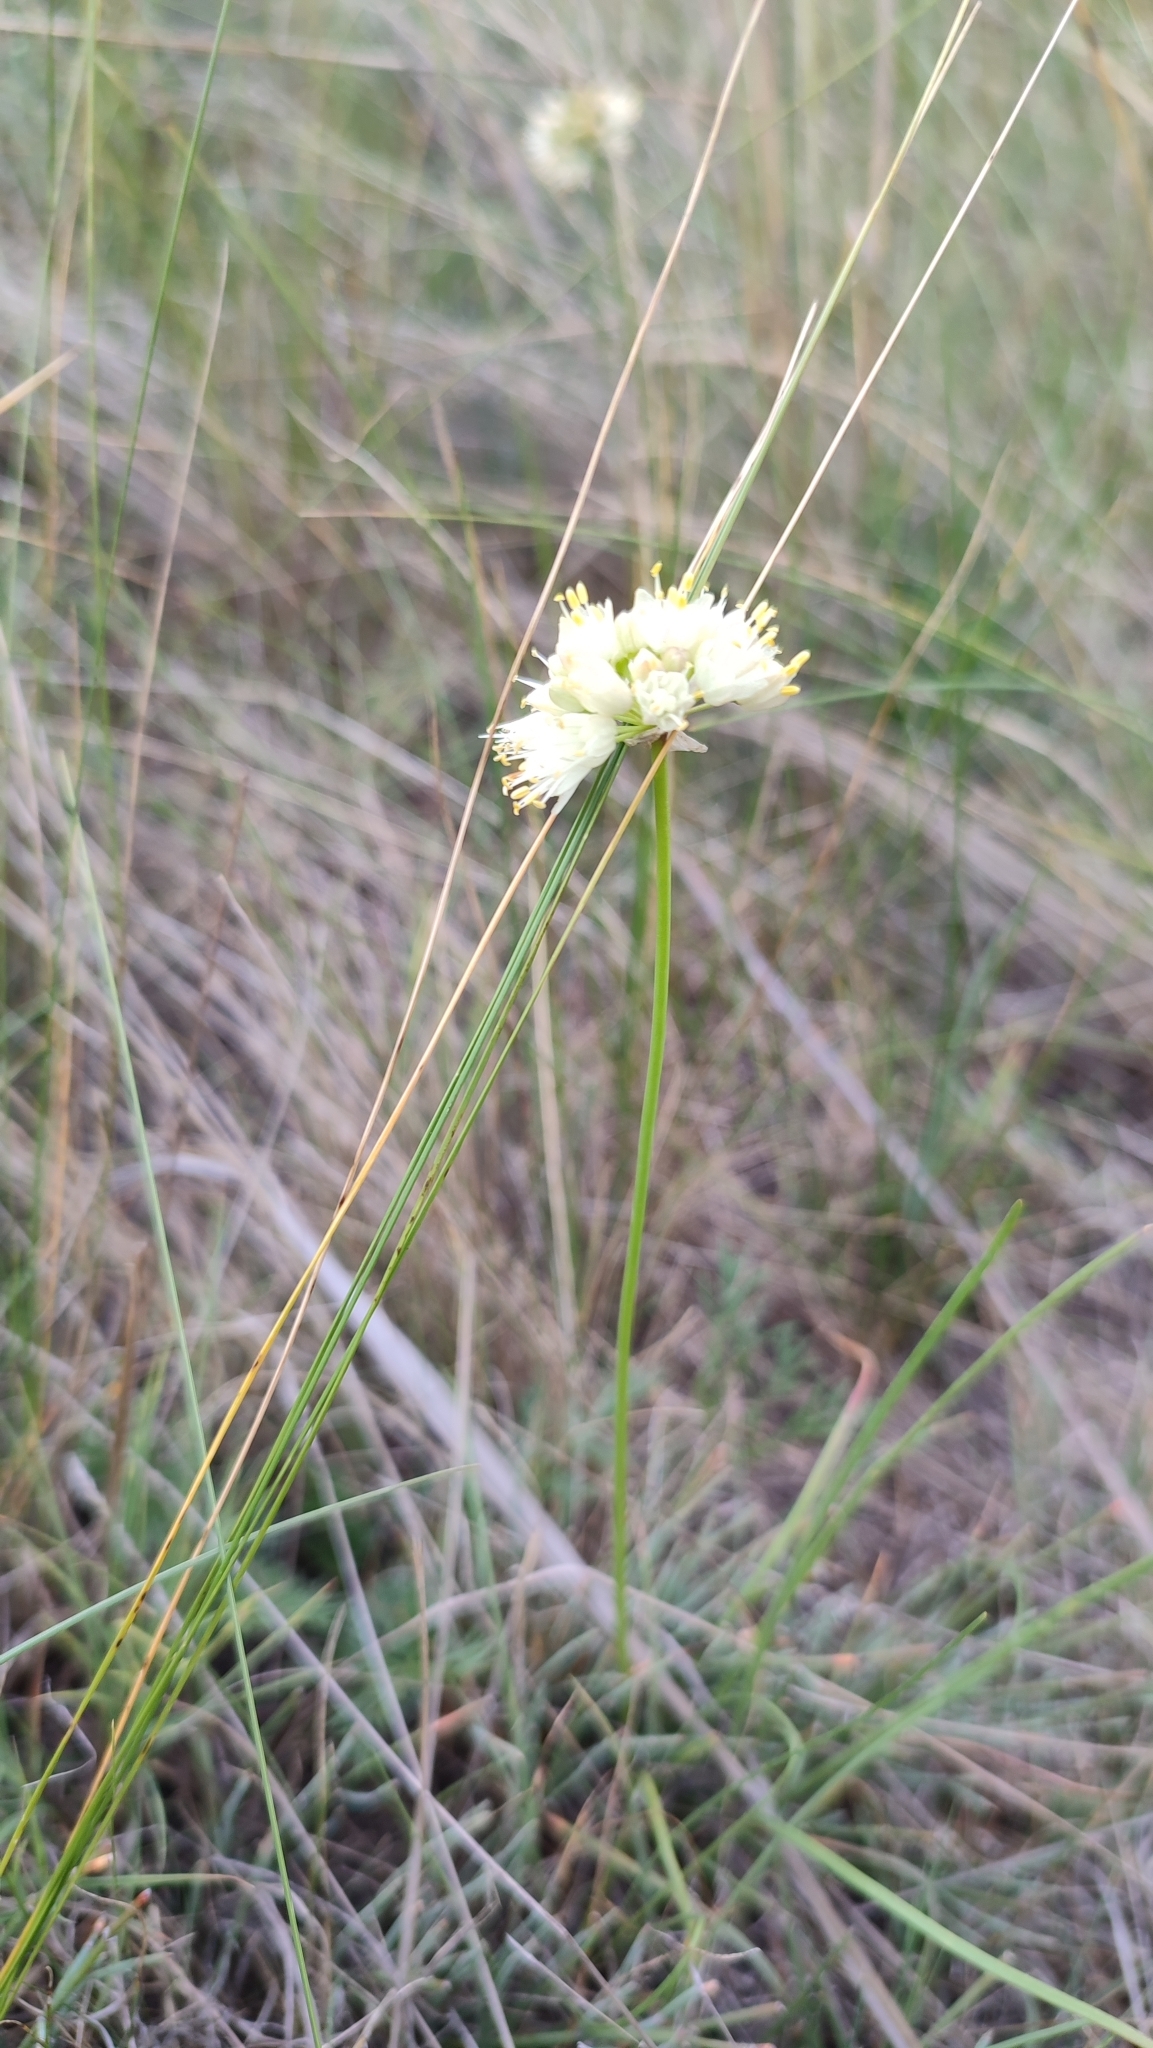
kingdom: Plantae
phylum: Tracheophyta
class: Liliopsida
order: Asparagales
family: Amaryllidaceae
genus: Allium
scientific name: Allium stellerianum
